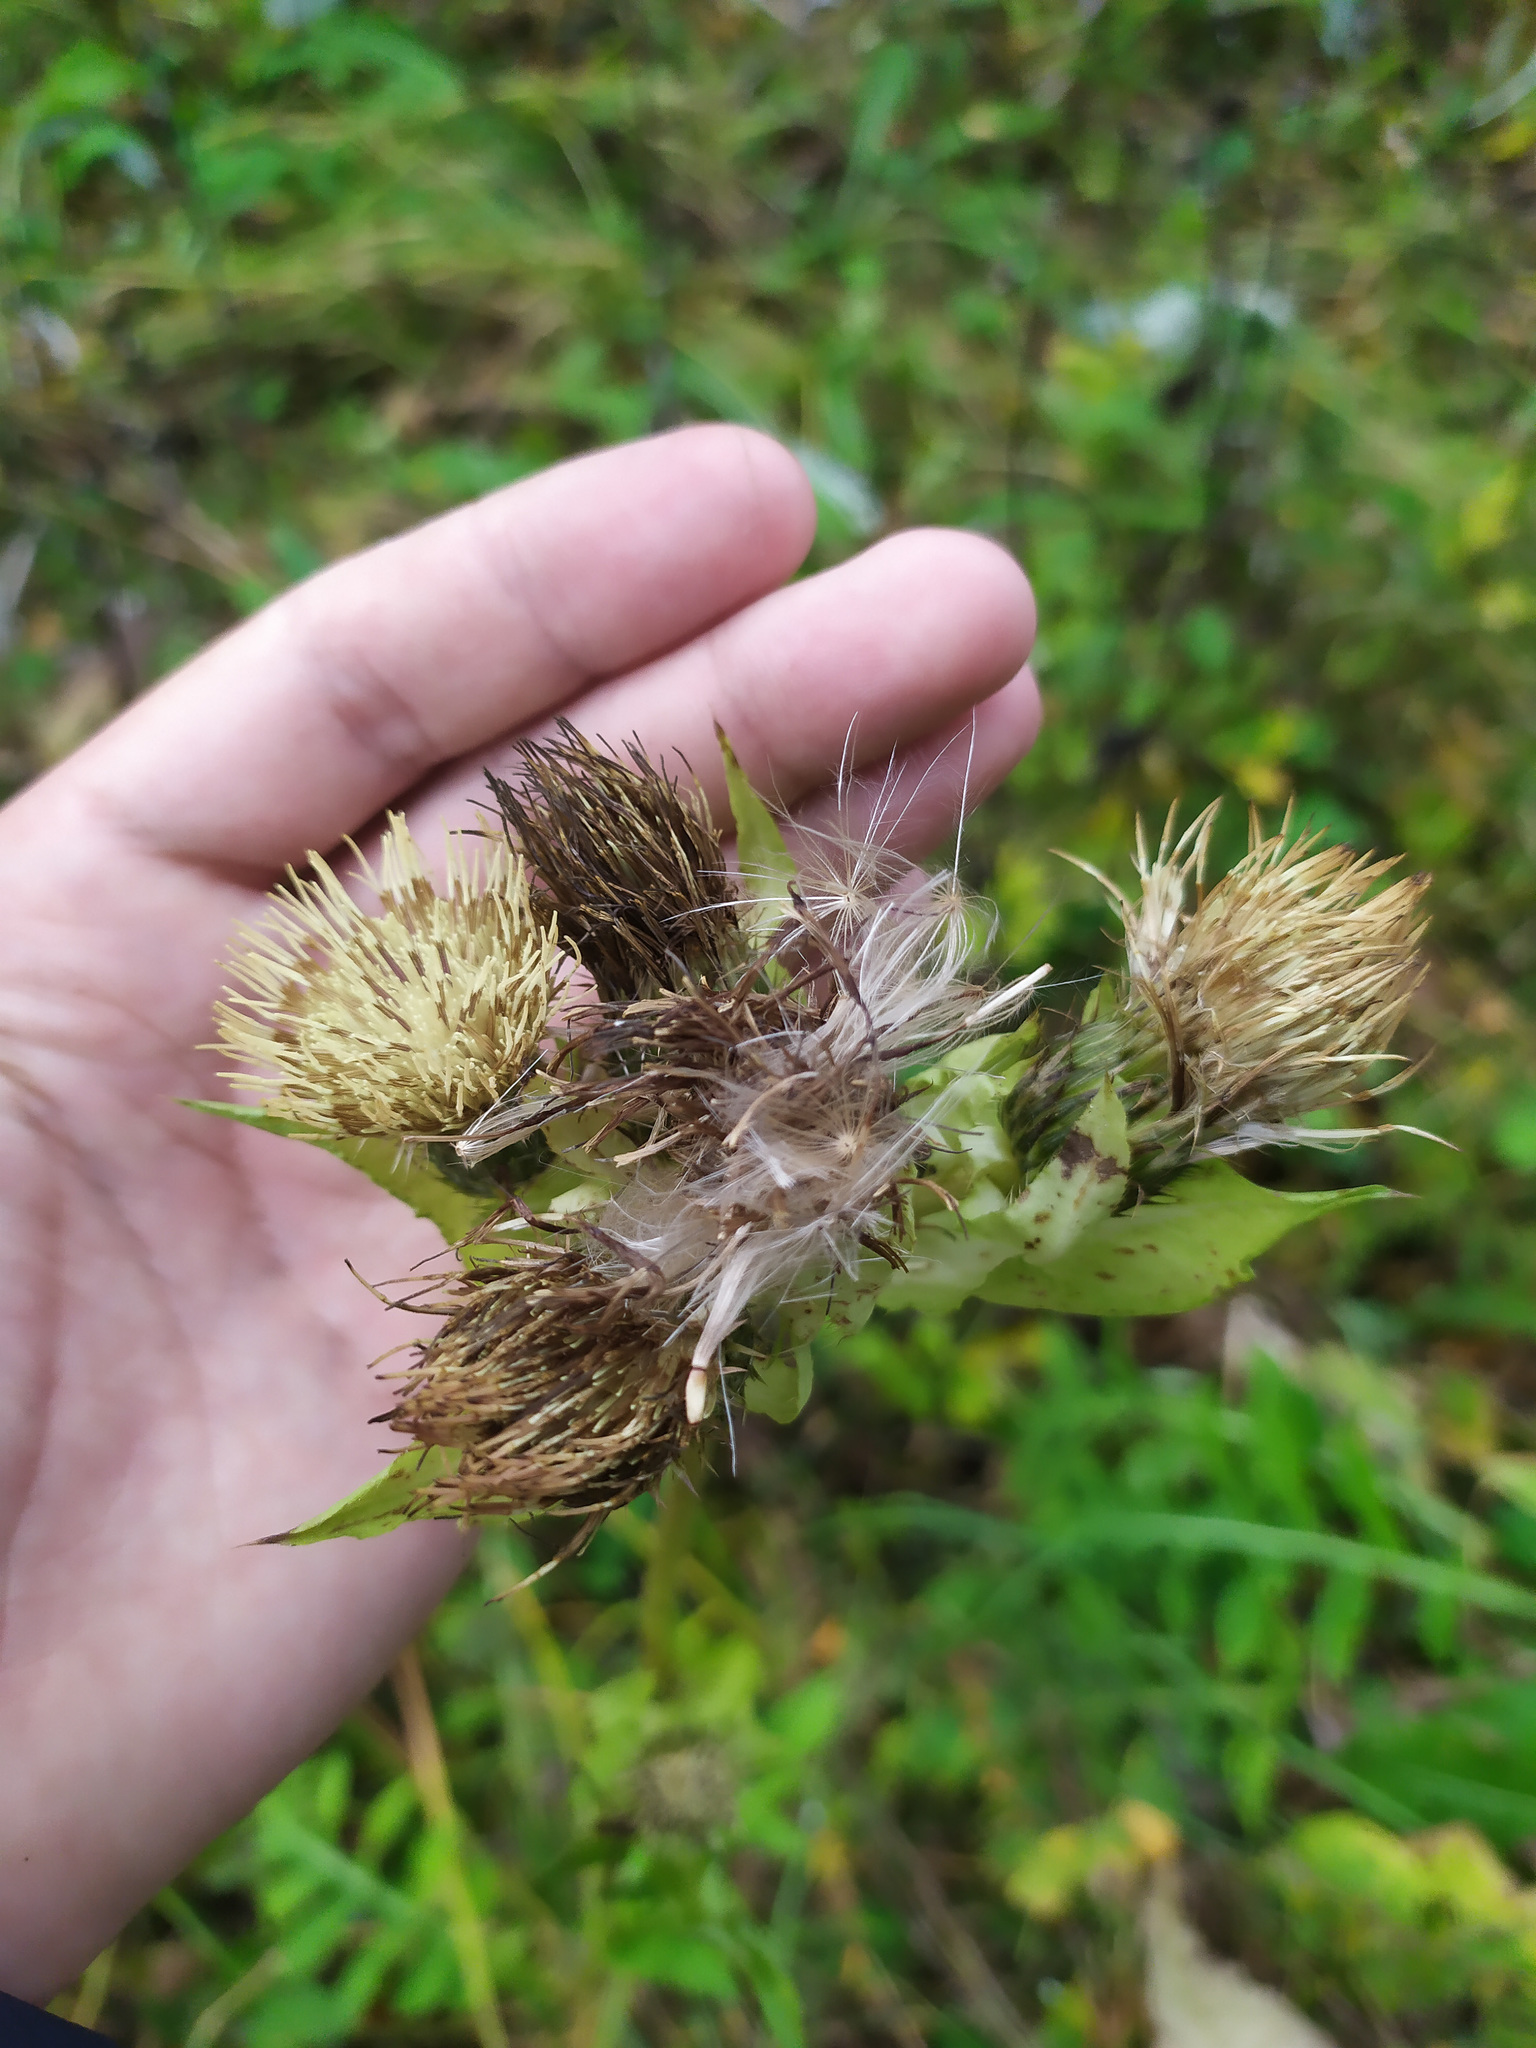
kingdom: Plantae
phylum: Tracheophyta
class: Magnoliopsida
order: Asterales
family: Asteraceae
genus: Cirsium
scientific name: Cirsium oleraceum
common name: Cabbage thistle
